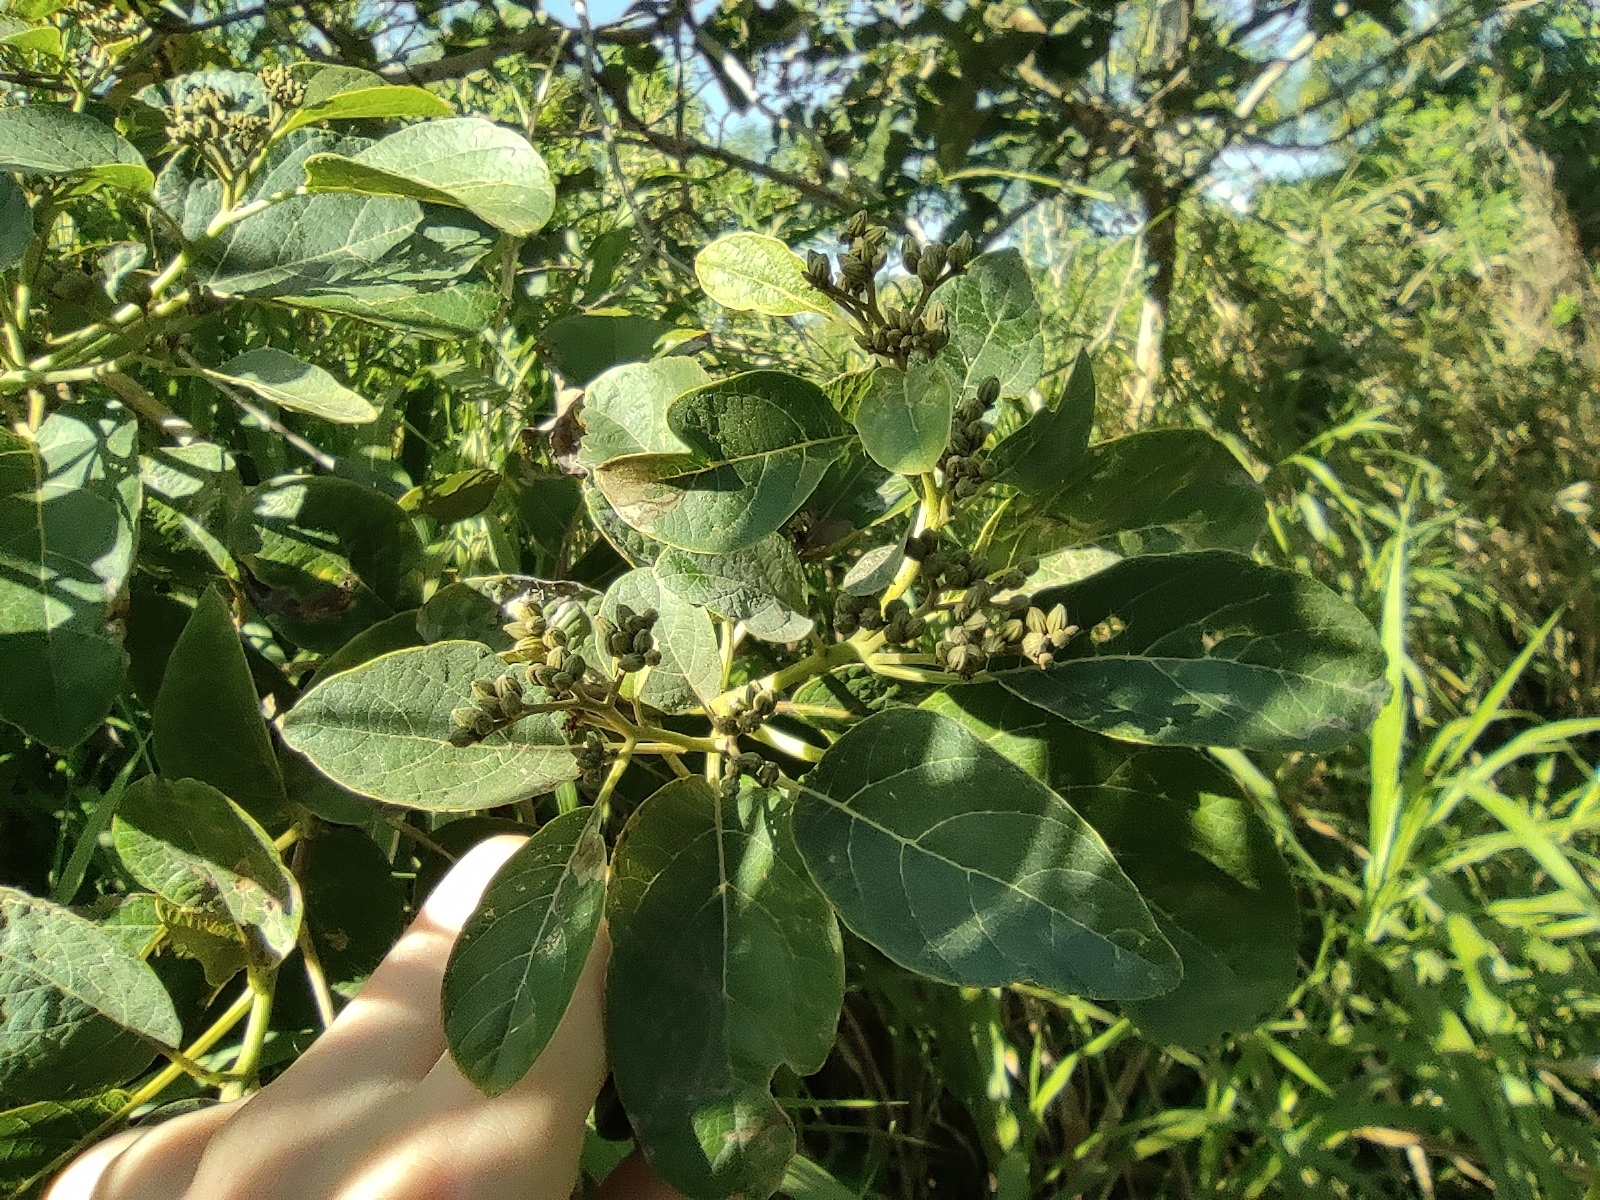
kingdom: Plantae
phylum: Tracheophyta
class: Magnoliopsida
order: Boraginales
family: Cordiaceae
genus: Cordia
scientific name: Cordia africana
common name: Large-leaved cordia
